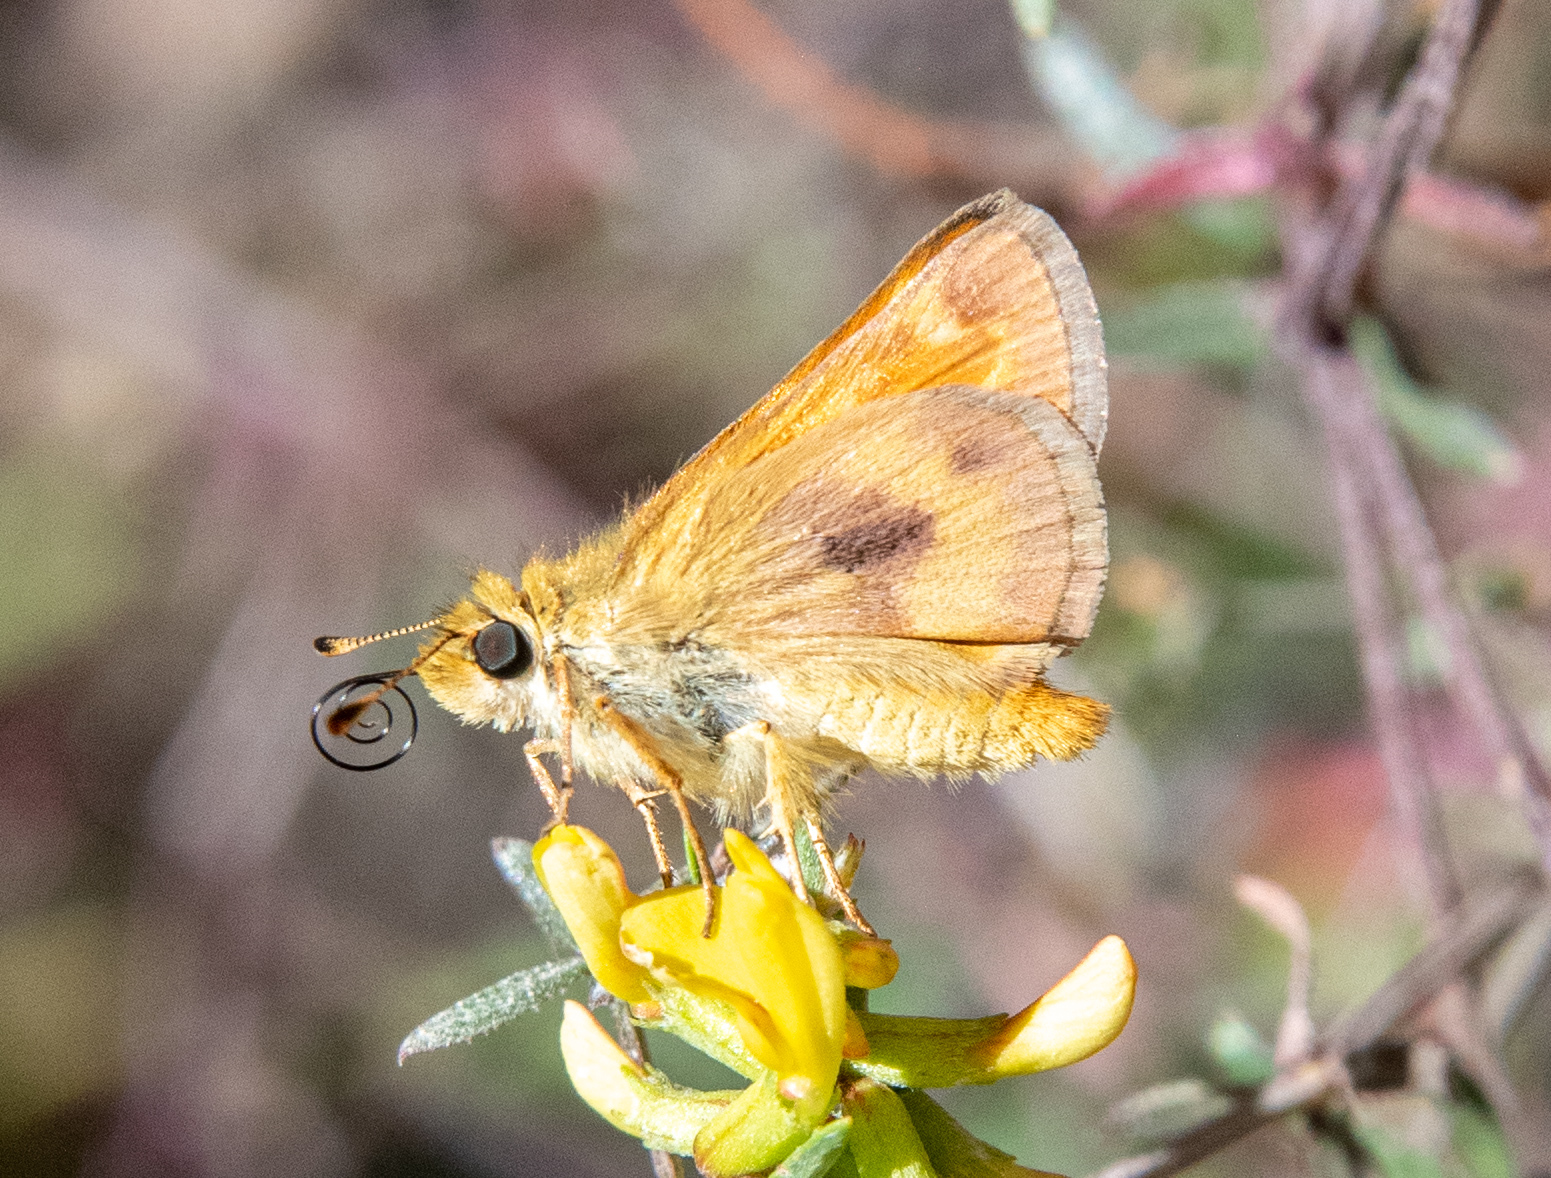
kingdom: Animalia
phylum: Arthropoda
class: Insecta
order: Lepidoptera
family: Hesperiidae
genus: Ochlodes
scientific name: Ochlodes agricola
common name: Rural skipper
